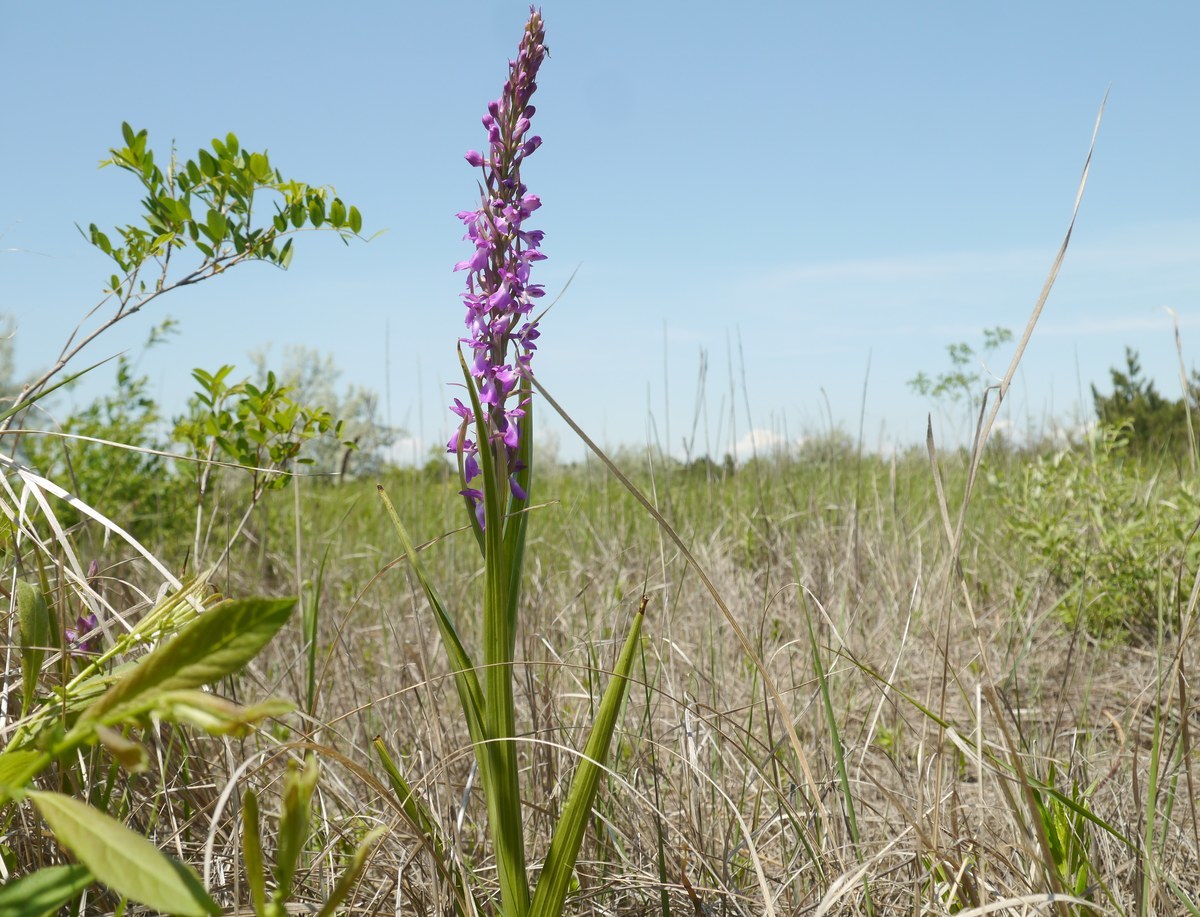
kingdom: Plantae
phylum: Tracheophyta
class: Liliopsida
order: Asparagales
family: Orchidaceae
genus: Anacamptis
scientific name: Anacamptis palustris
